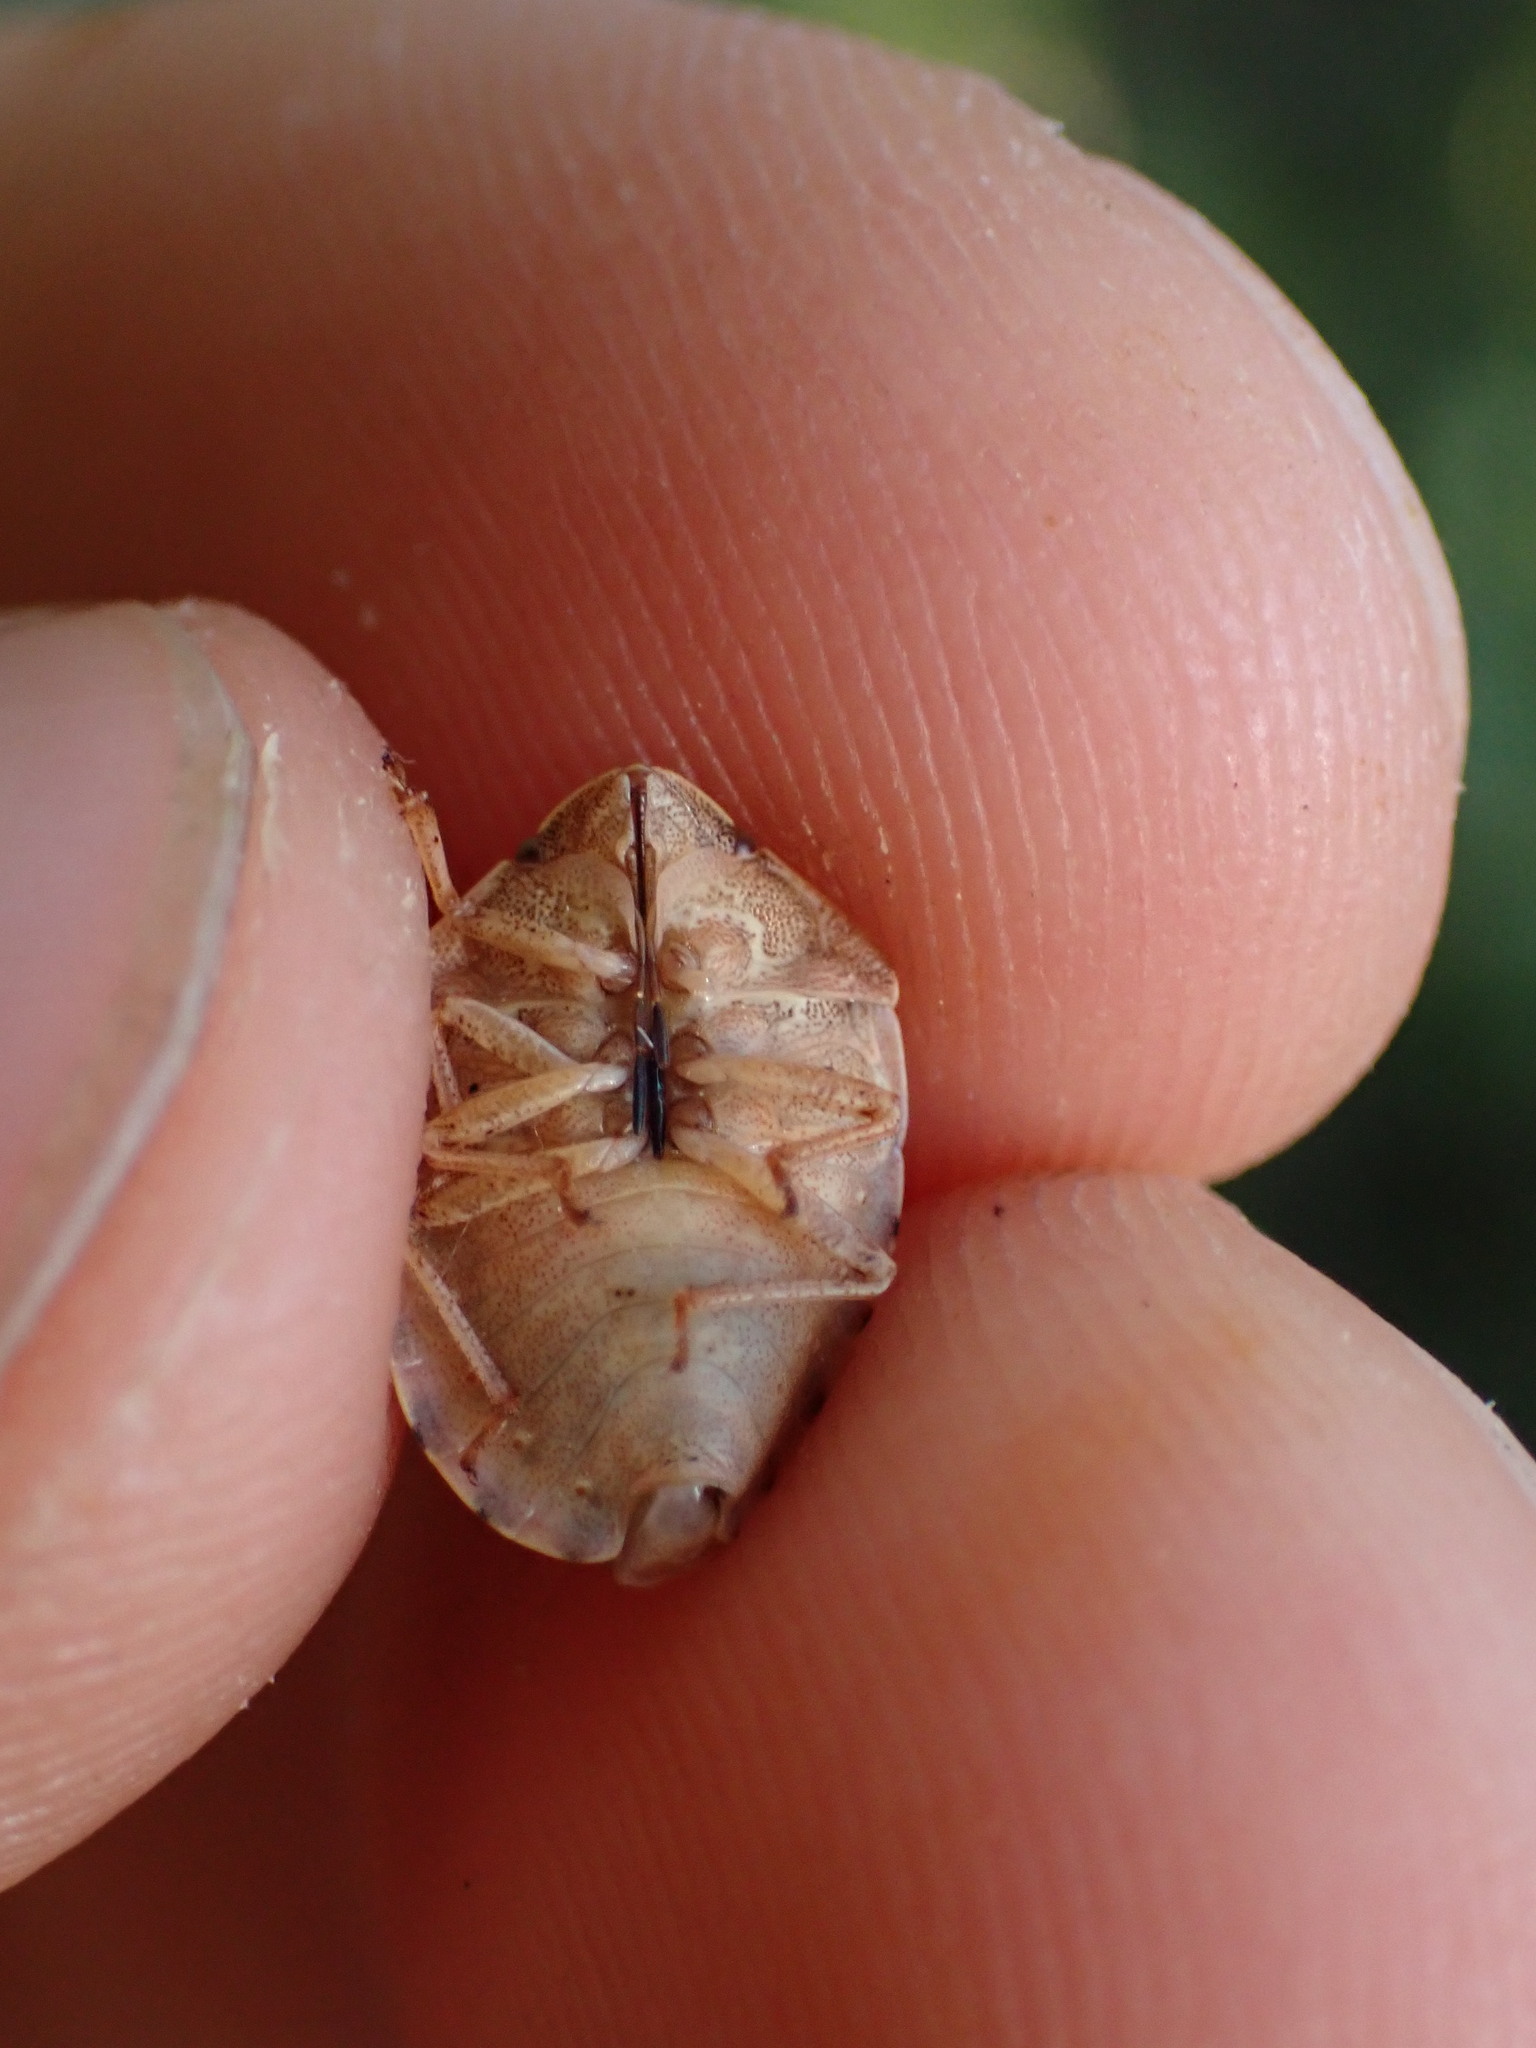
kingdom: Animalia
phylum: Arthropoda
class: Insecta
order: Hemiptera
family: Scutelleridae
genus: Eurygaster
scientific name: Eurygaster maura
